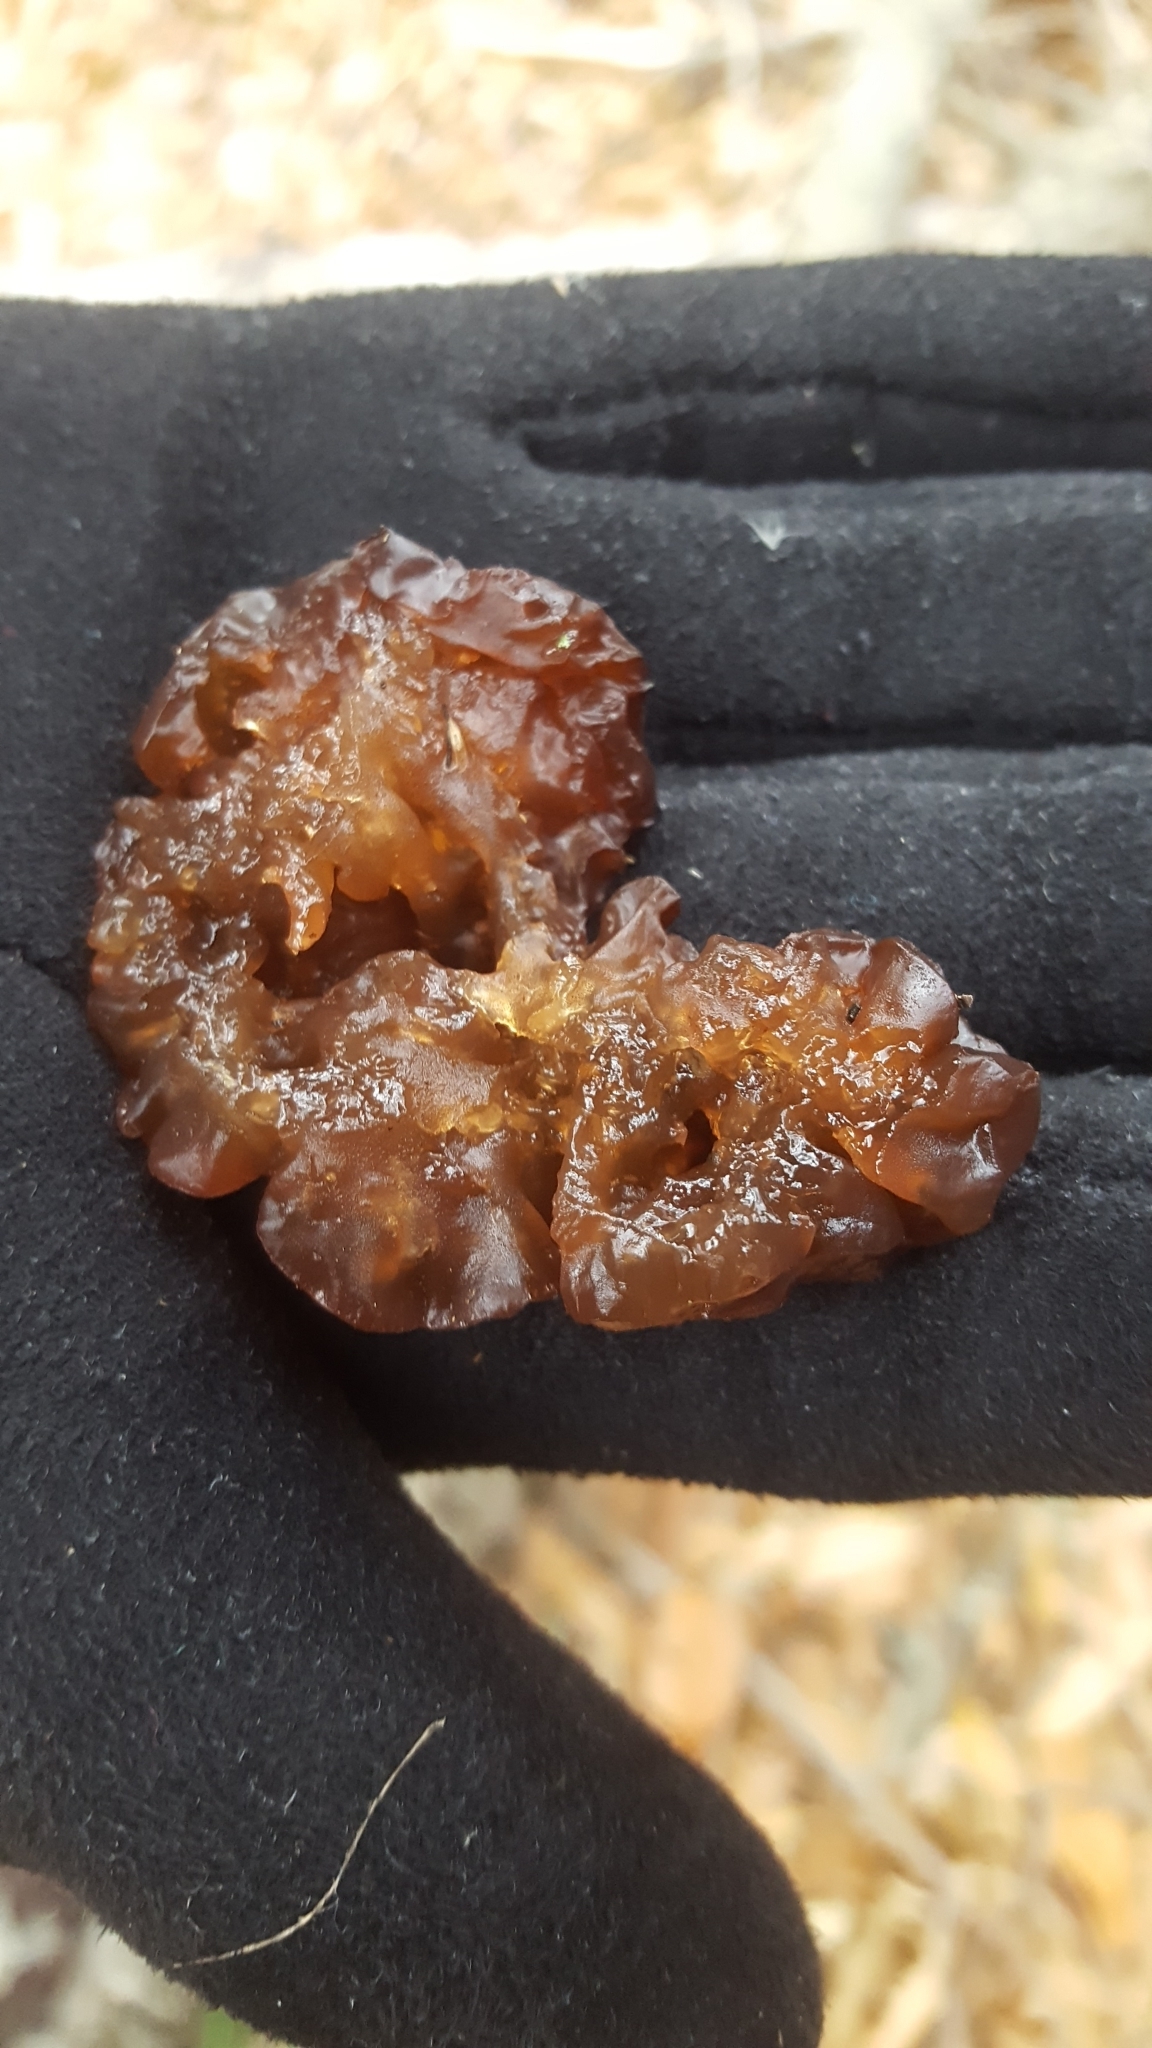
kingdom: Fungi
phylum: Basidiomycota
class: Agaricomycetes
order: Auriculariales
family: Auriculariaceae
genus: Exidia
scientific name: Exidia
